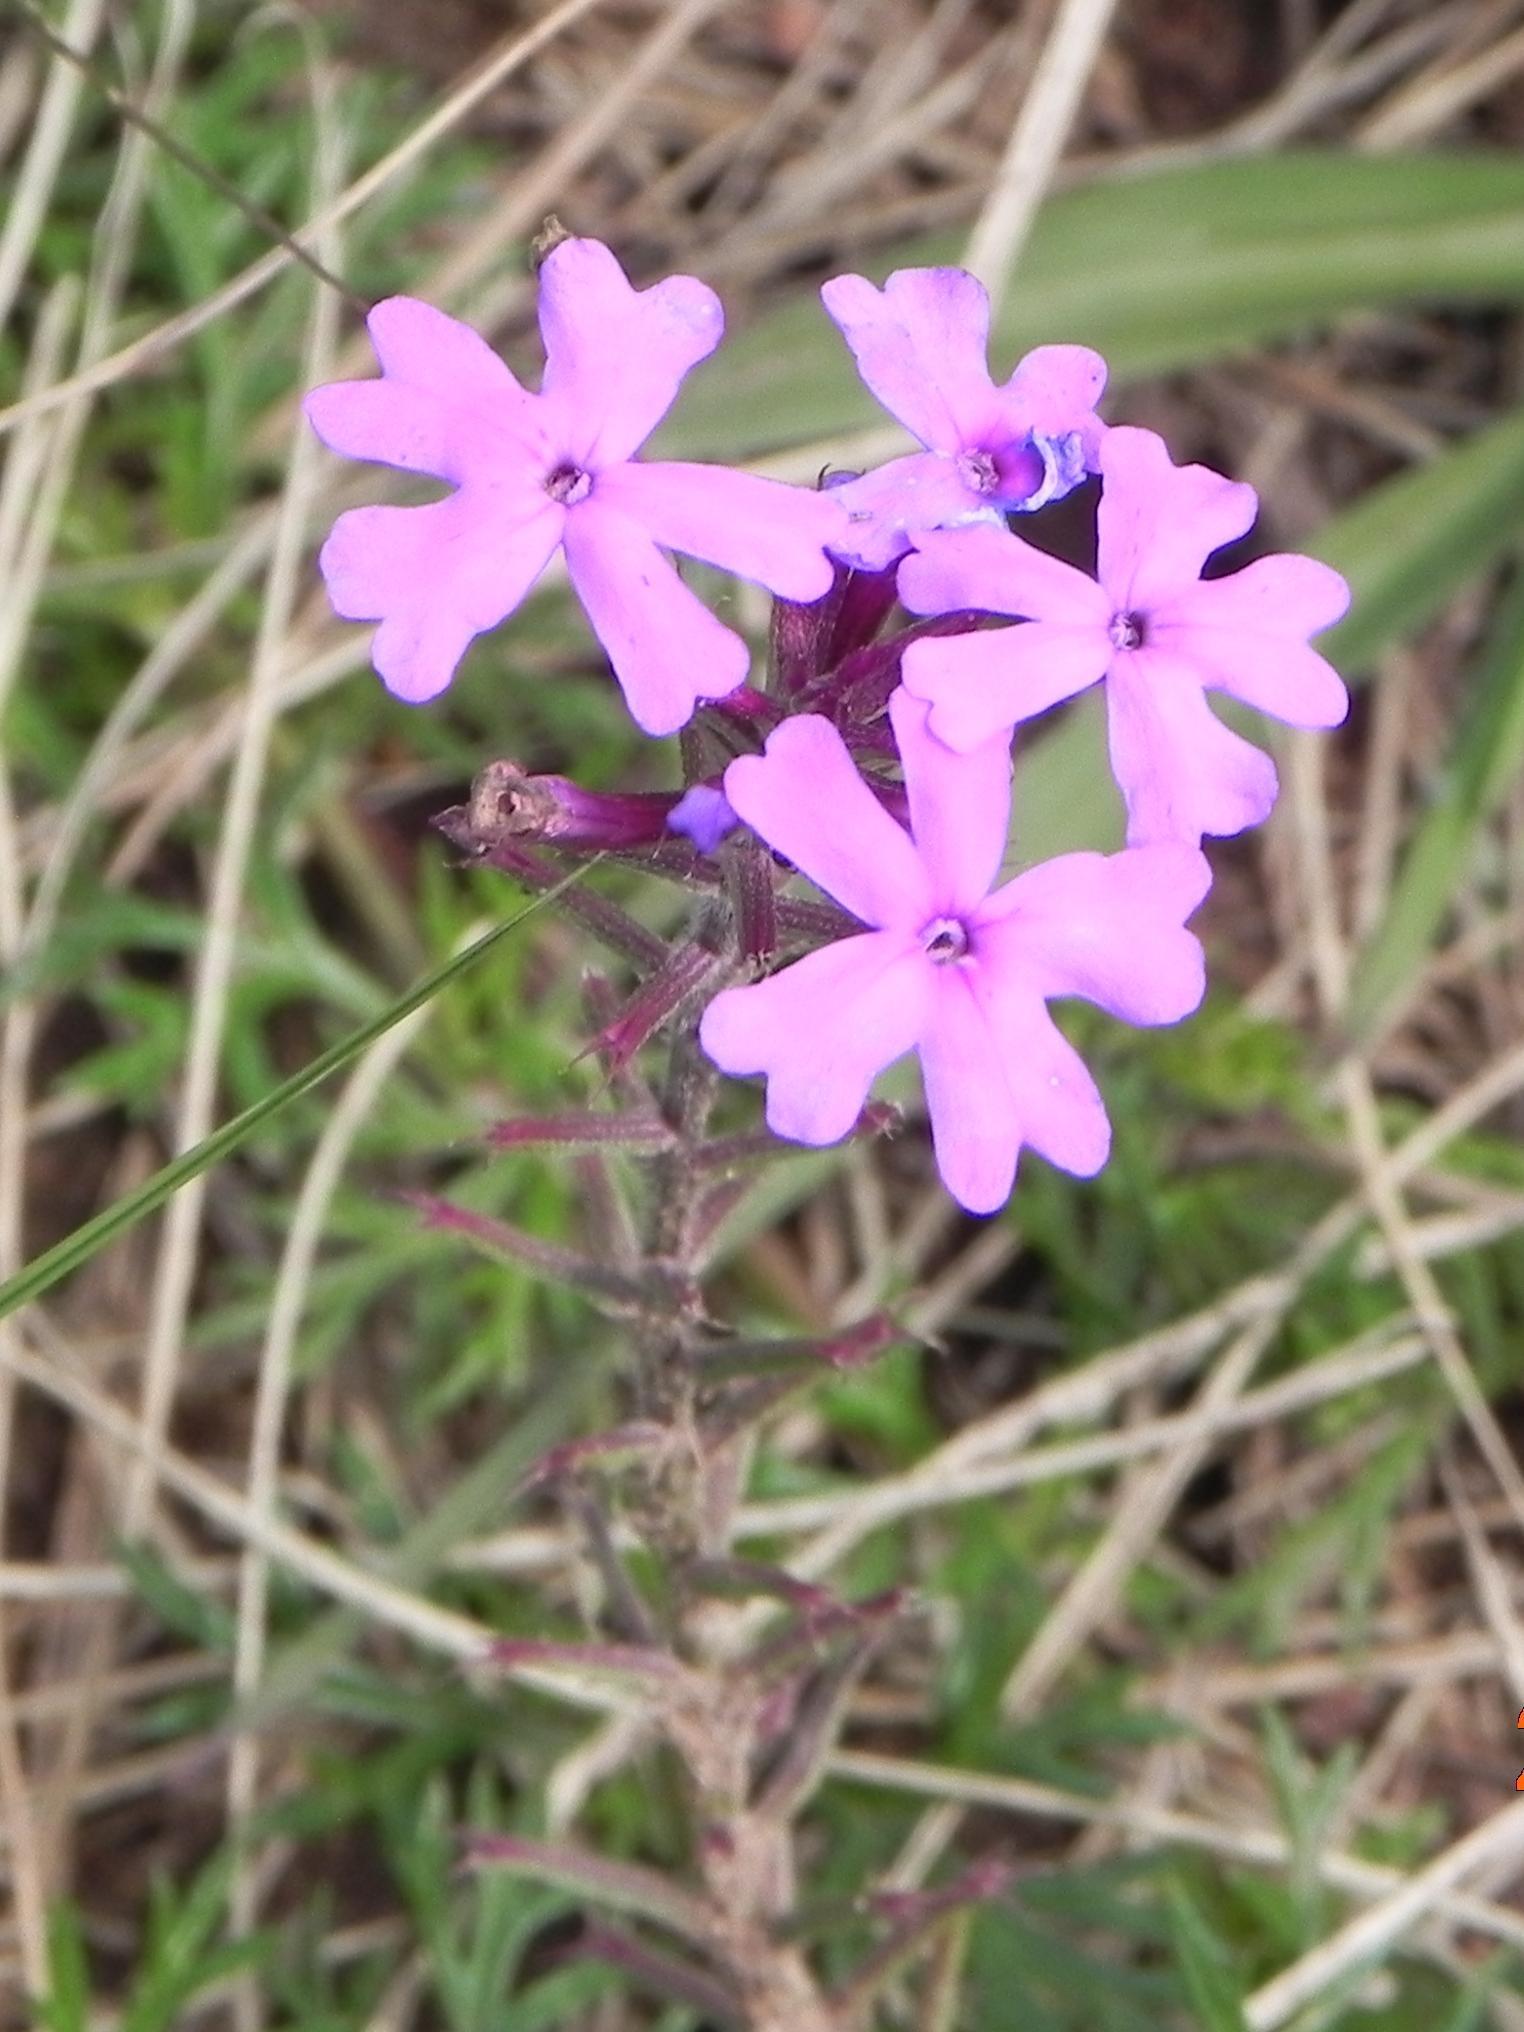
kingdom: Plantae
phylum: Tracheophyta
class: Magnoliopsida
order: Lamiales
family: Verbenaceae
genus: Verbena
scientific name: Verbena aristigera
